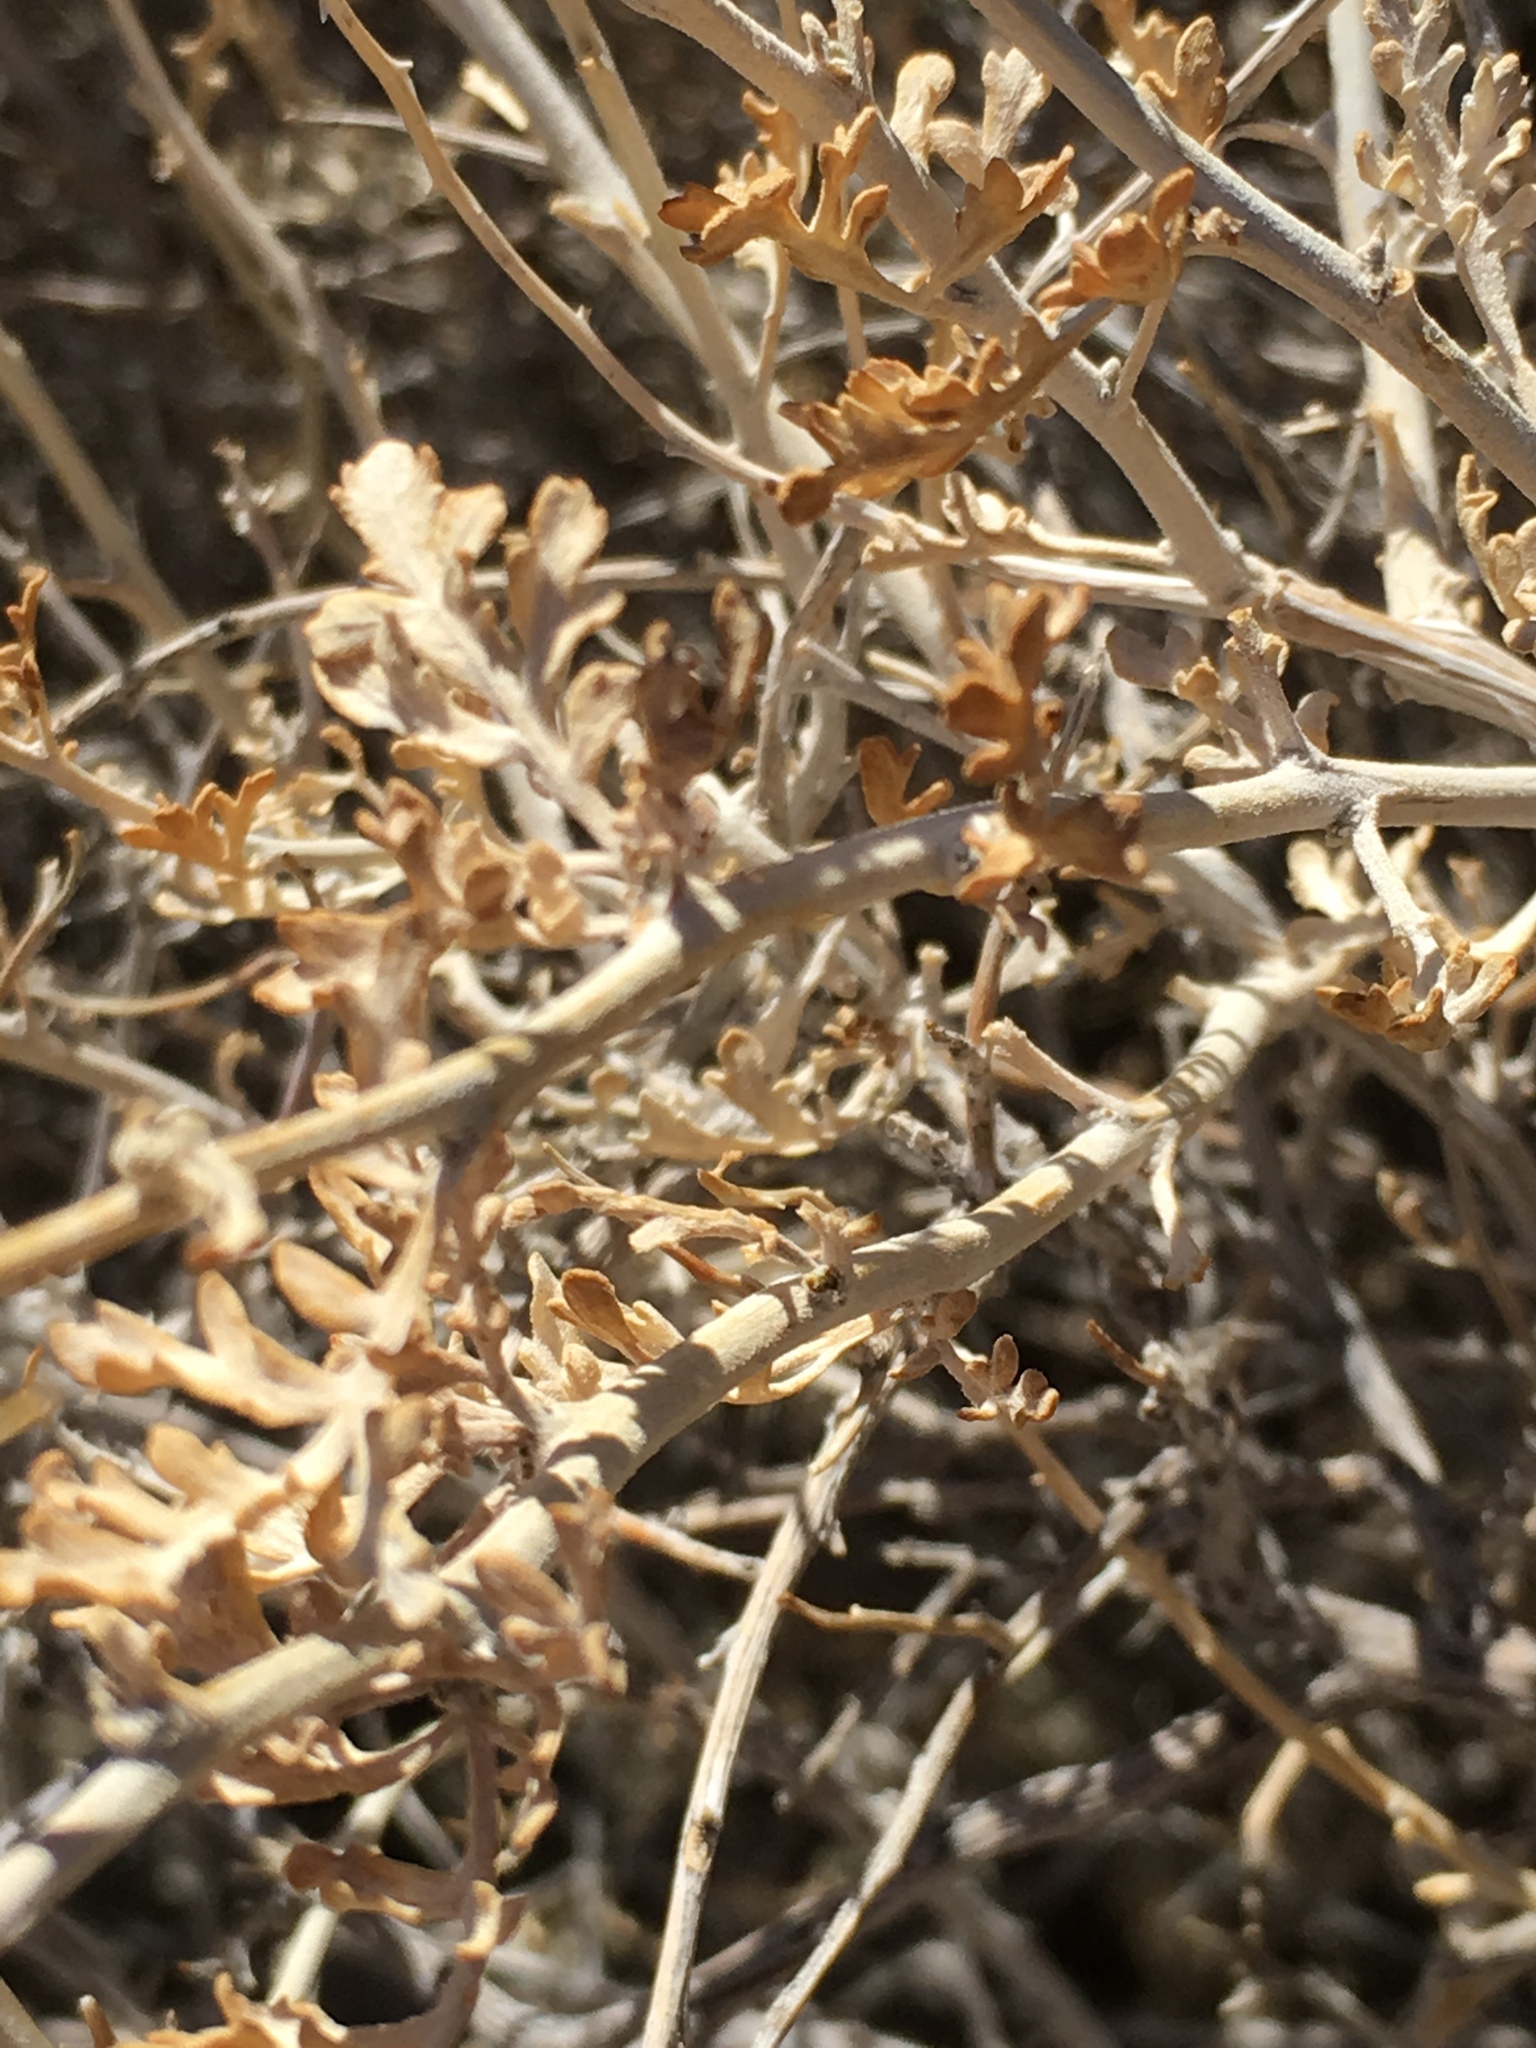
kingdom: Plantae
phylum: Tracheophyta
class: Magnoliopsida
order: Asterales
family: Asteraceae
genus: Ambrosia
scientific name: Ambrosia dumosa
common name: Bur-sage
